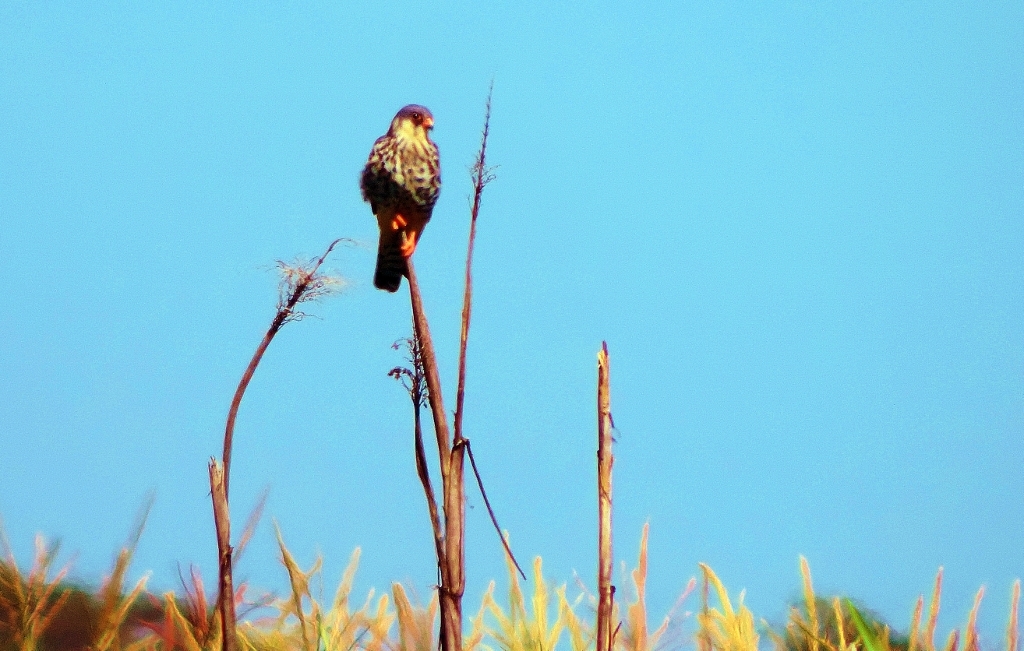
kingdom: Animalia
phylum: Chordata
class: Aves
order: Falconiformes
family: Falconidae
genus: Falco
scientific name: Falco amurensis
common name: Amur falcon
